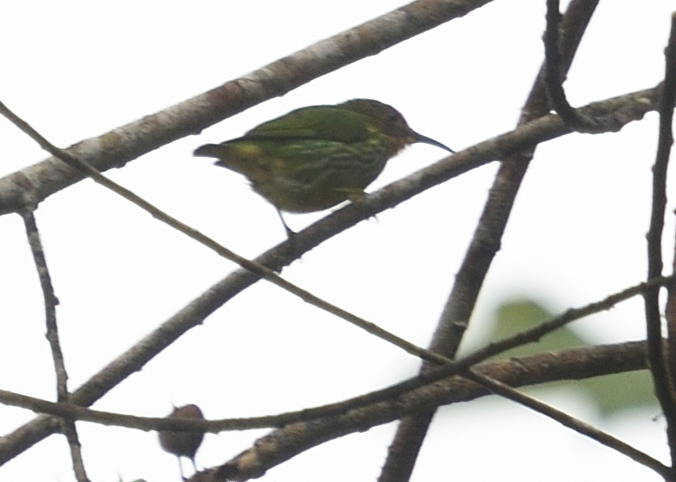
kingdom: Animalia
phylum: Chordata
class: Aves
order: Passeriformes
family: Thraupidae
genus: Cyanerpes
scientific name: Cyanerpes caeruleus
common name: Purple honeycreeper
